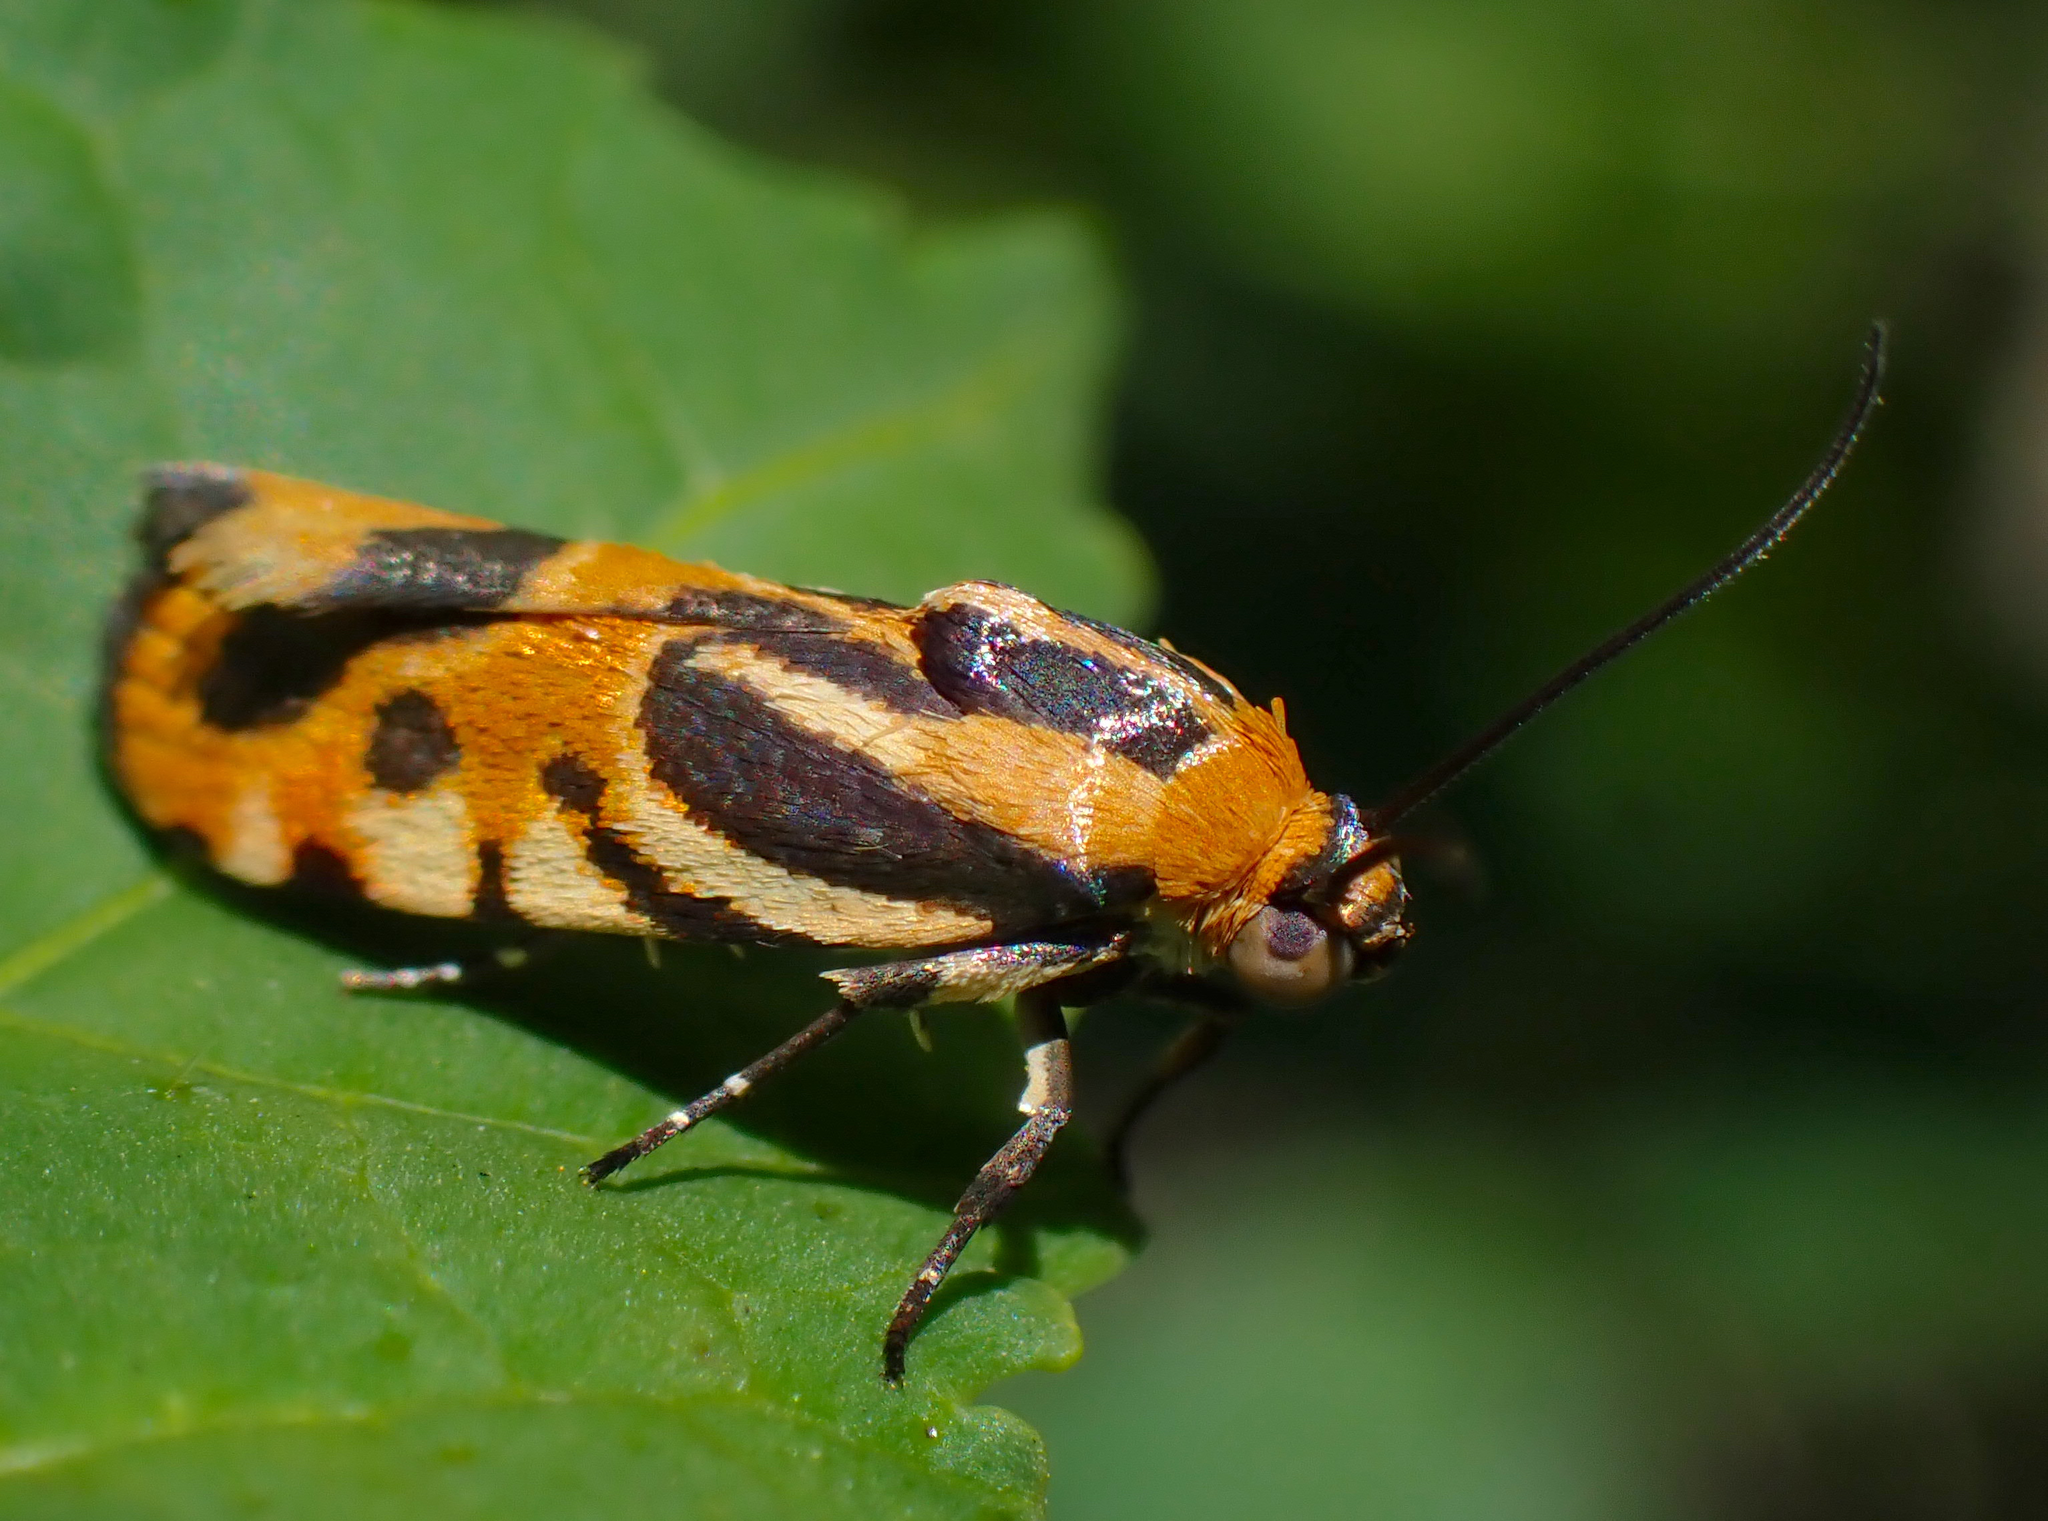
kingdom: Animalia
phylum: Arthropoda
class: Insecta
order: Lepidoptera
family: Noctuidae
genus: Acontia
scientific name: Acontia onagrus
